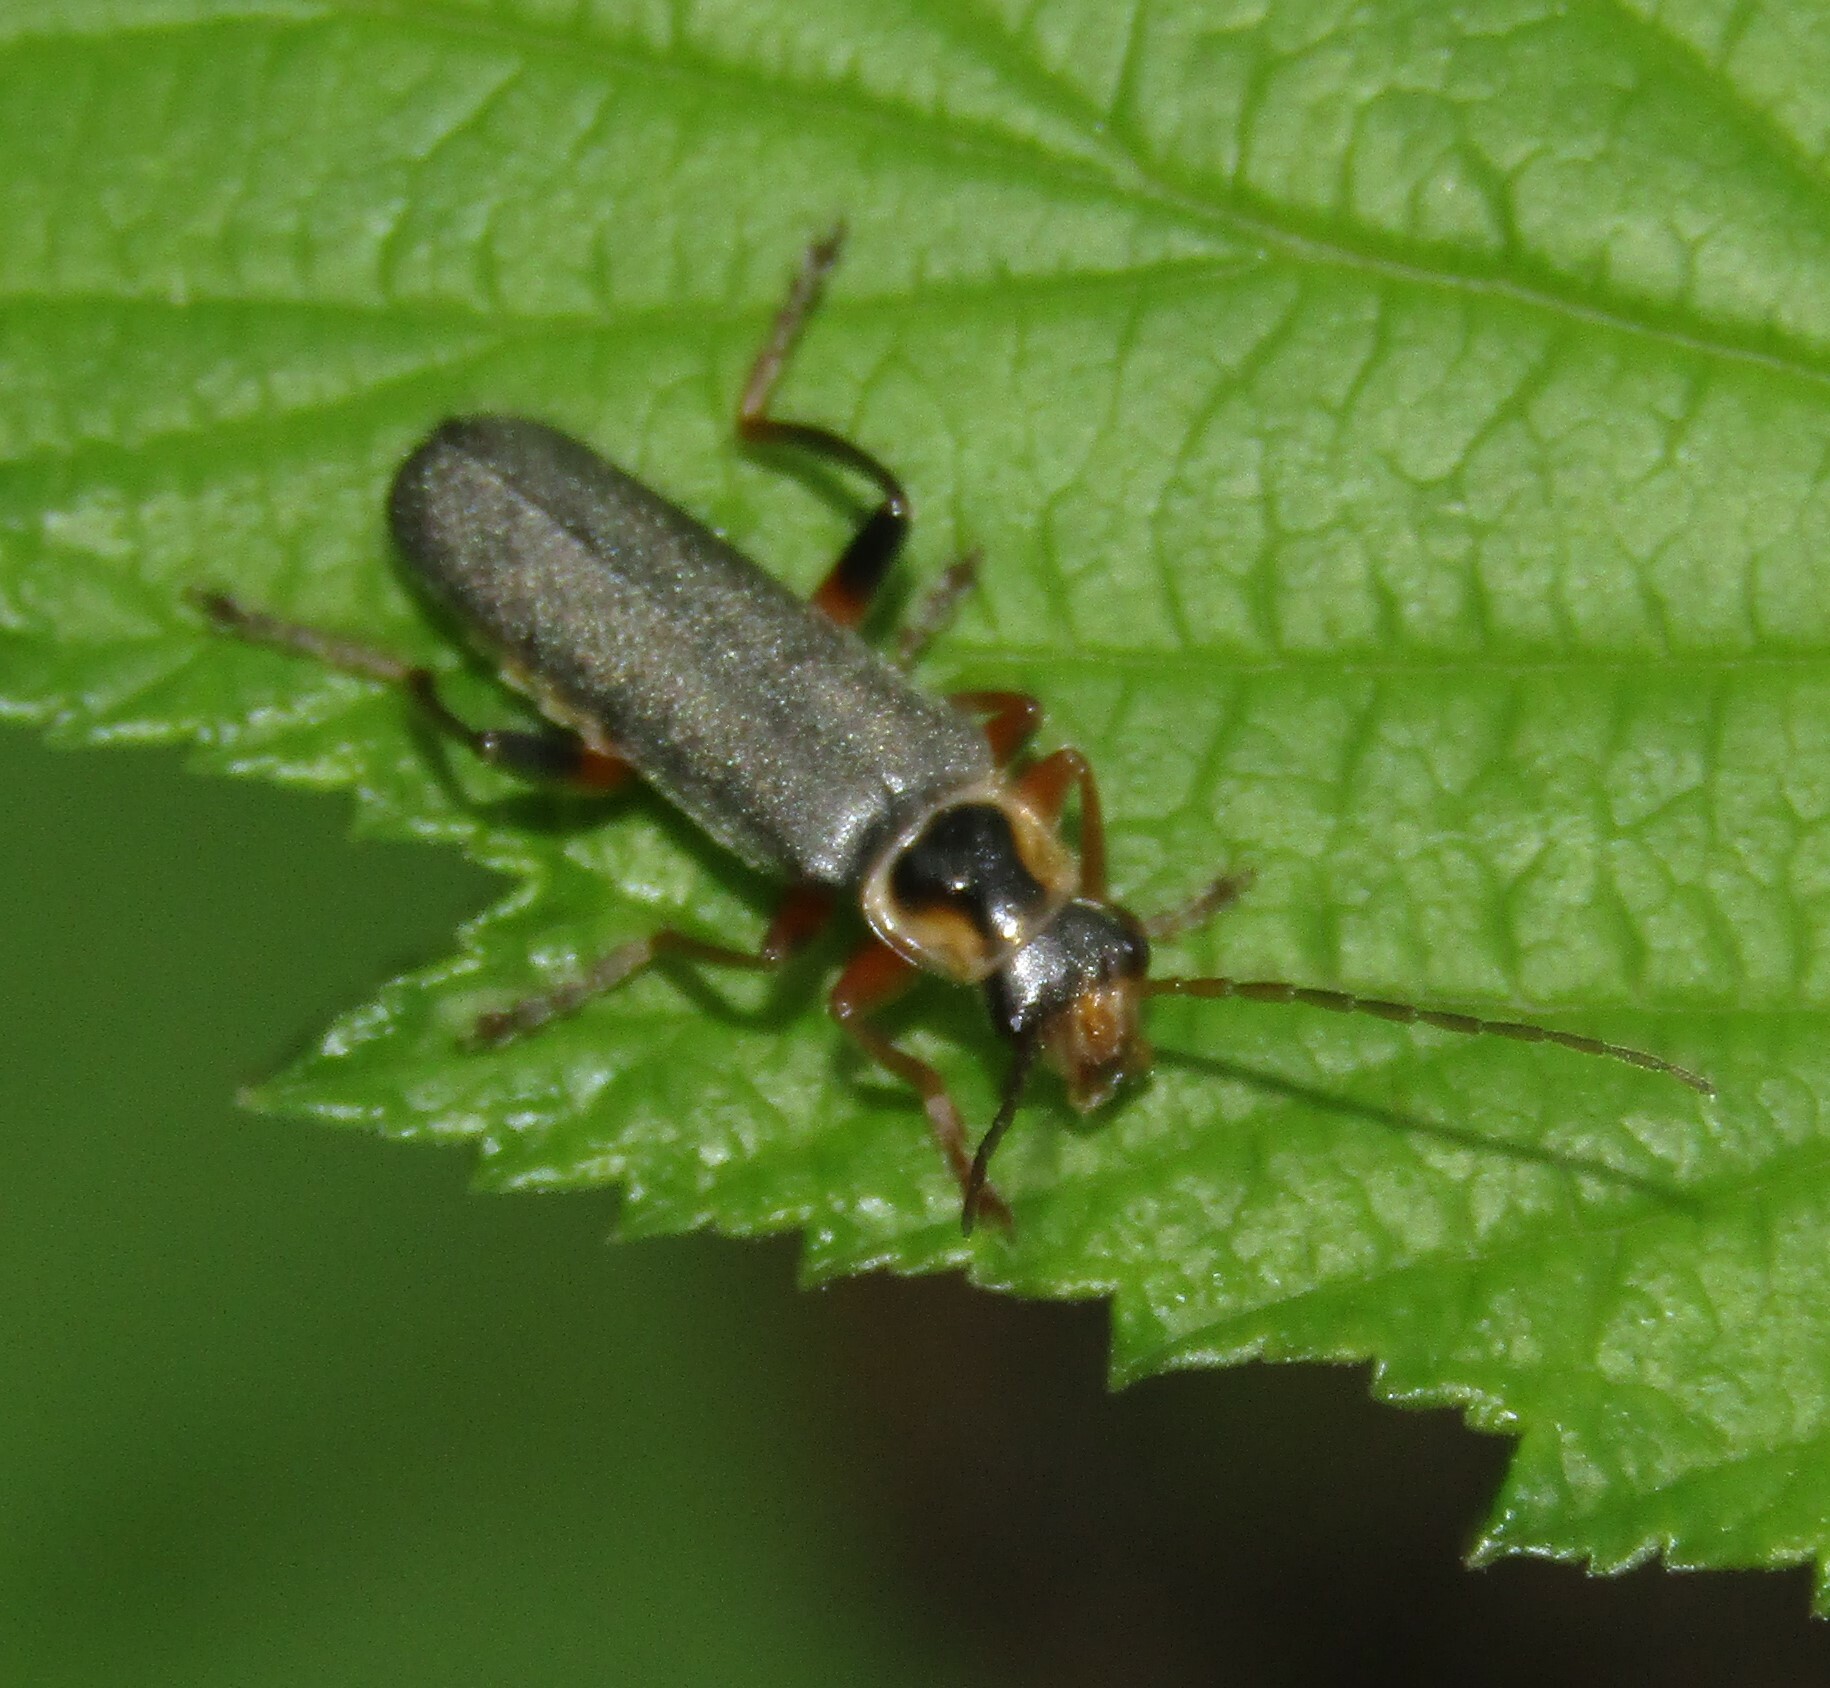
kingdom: Animalia
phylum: Arthropoda
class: Insecta
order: Coleoptera
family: Cantharidae
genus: Cantharis
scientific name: Cantharis nigricans
